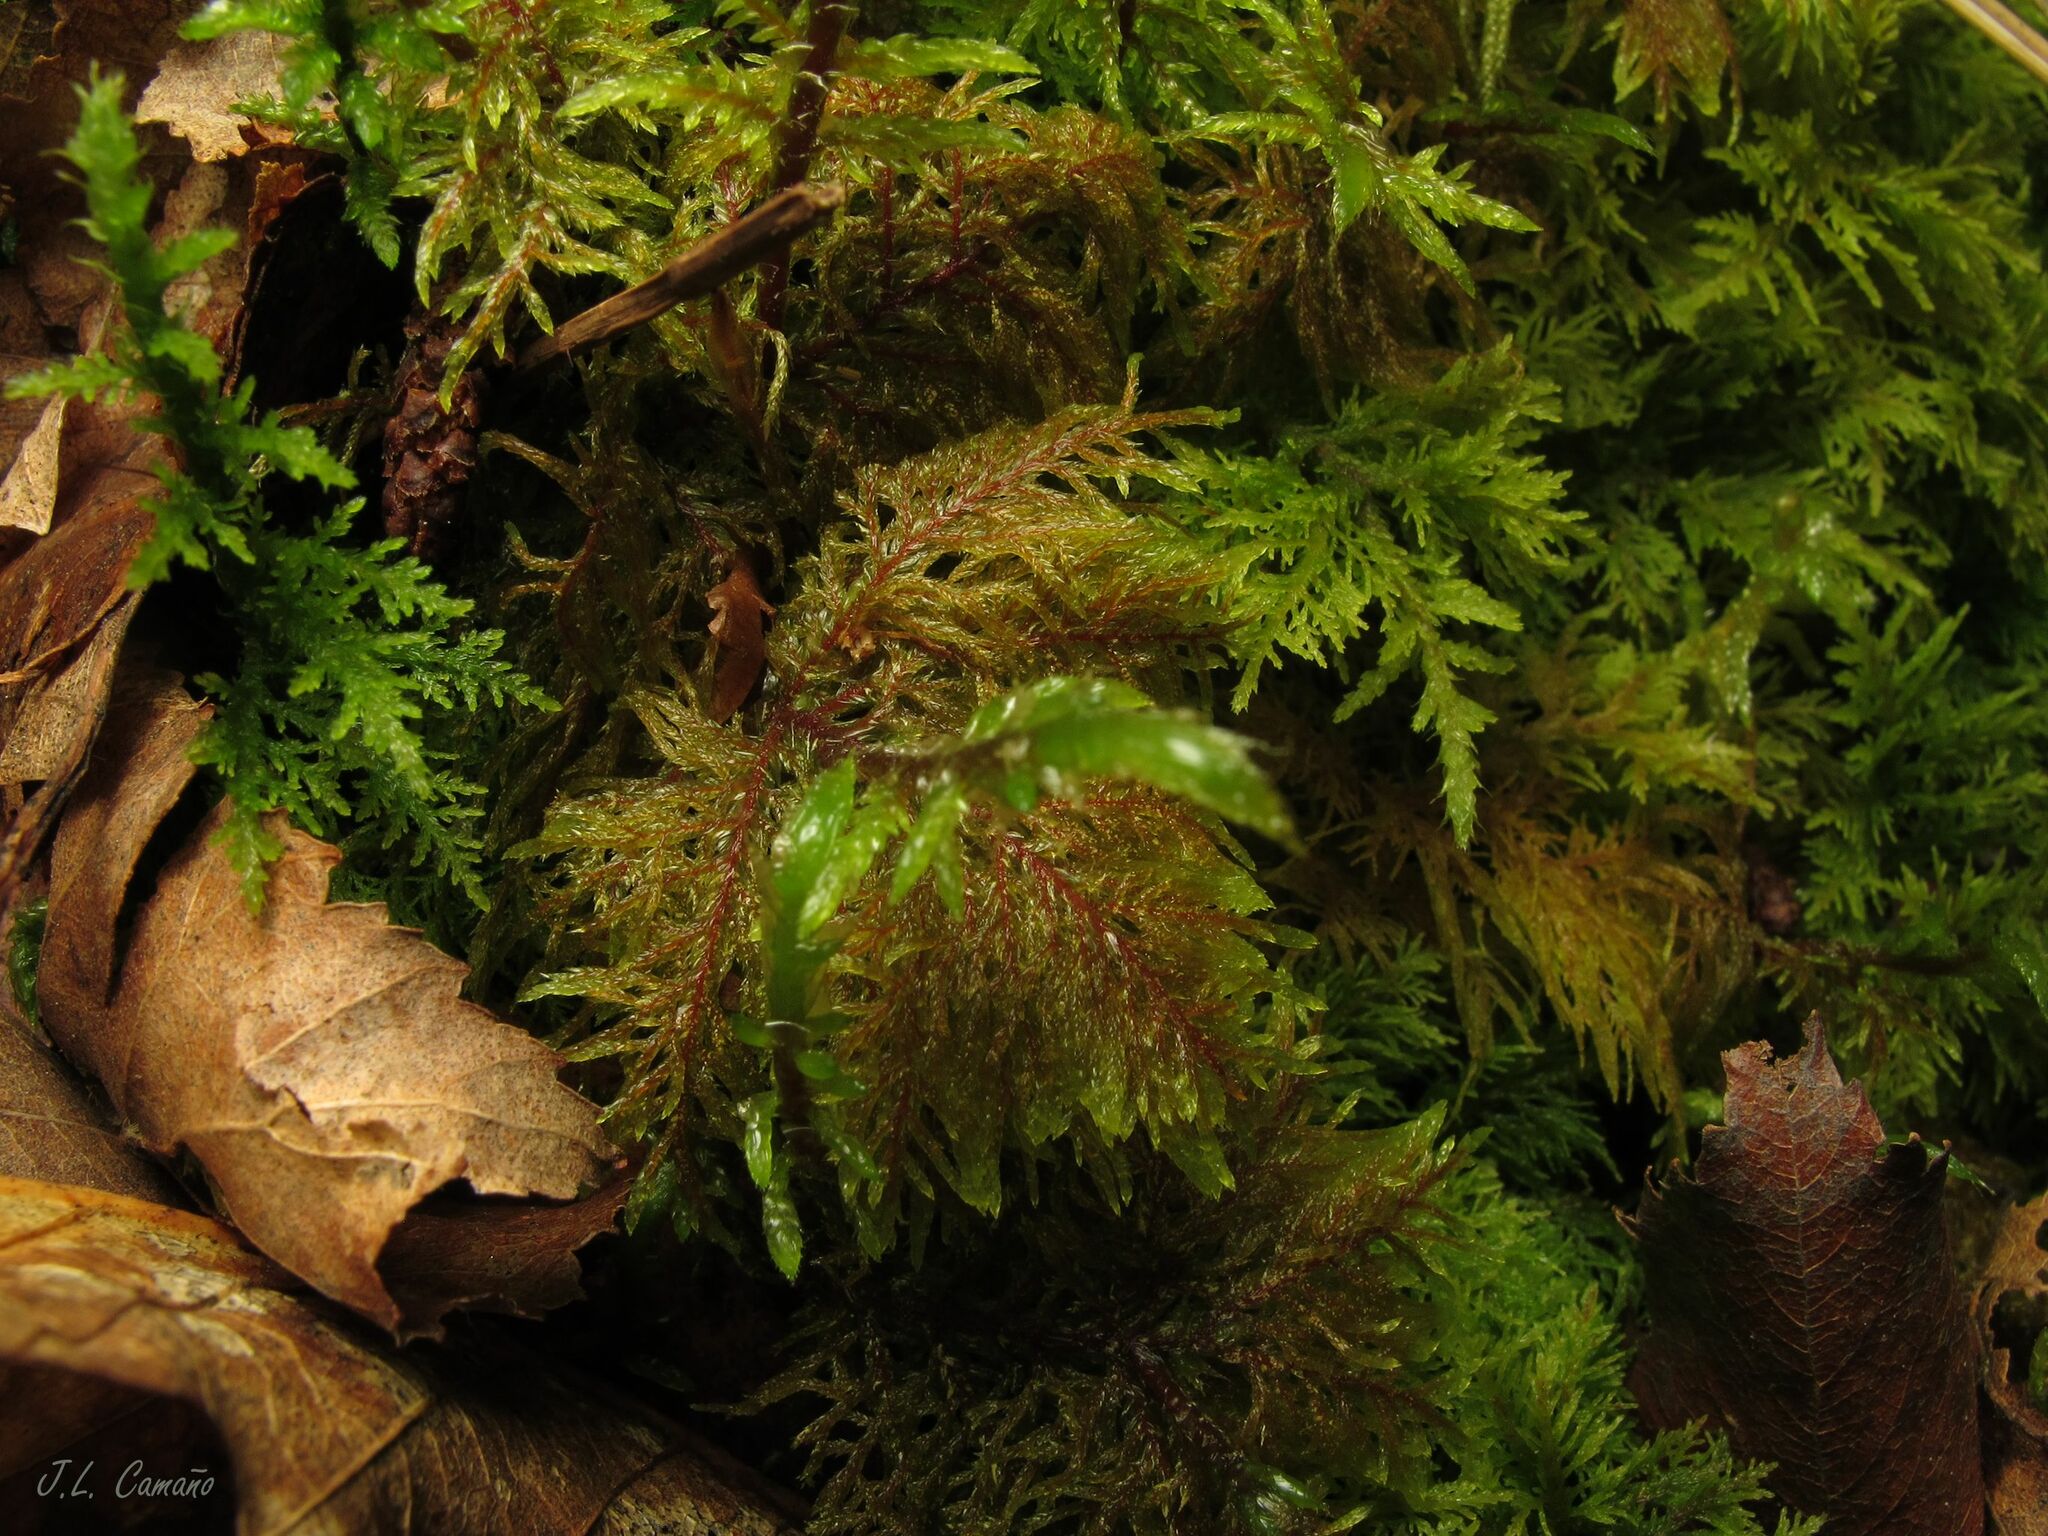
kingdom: Plantae
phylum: Bryophyta
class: Bryopsida
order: Hypnales
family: Hylocomiaceae
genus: Hylocomium
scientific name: Hylocomium splendens
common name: Stairstep moss
